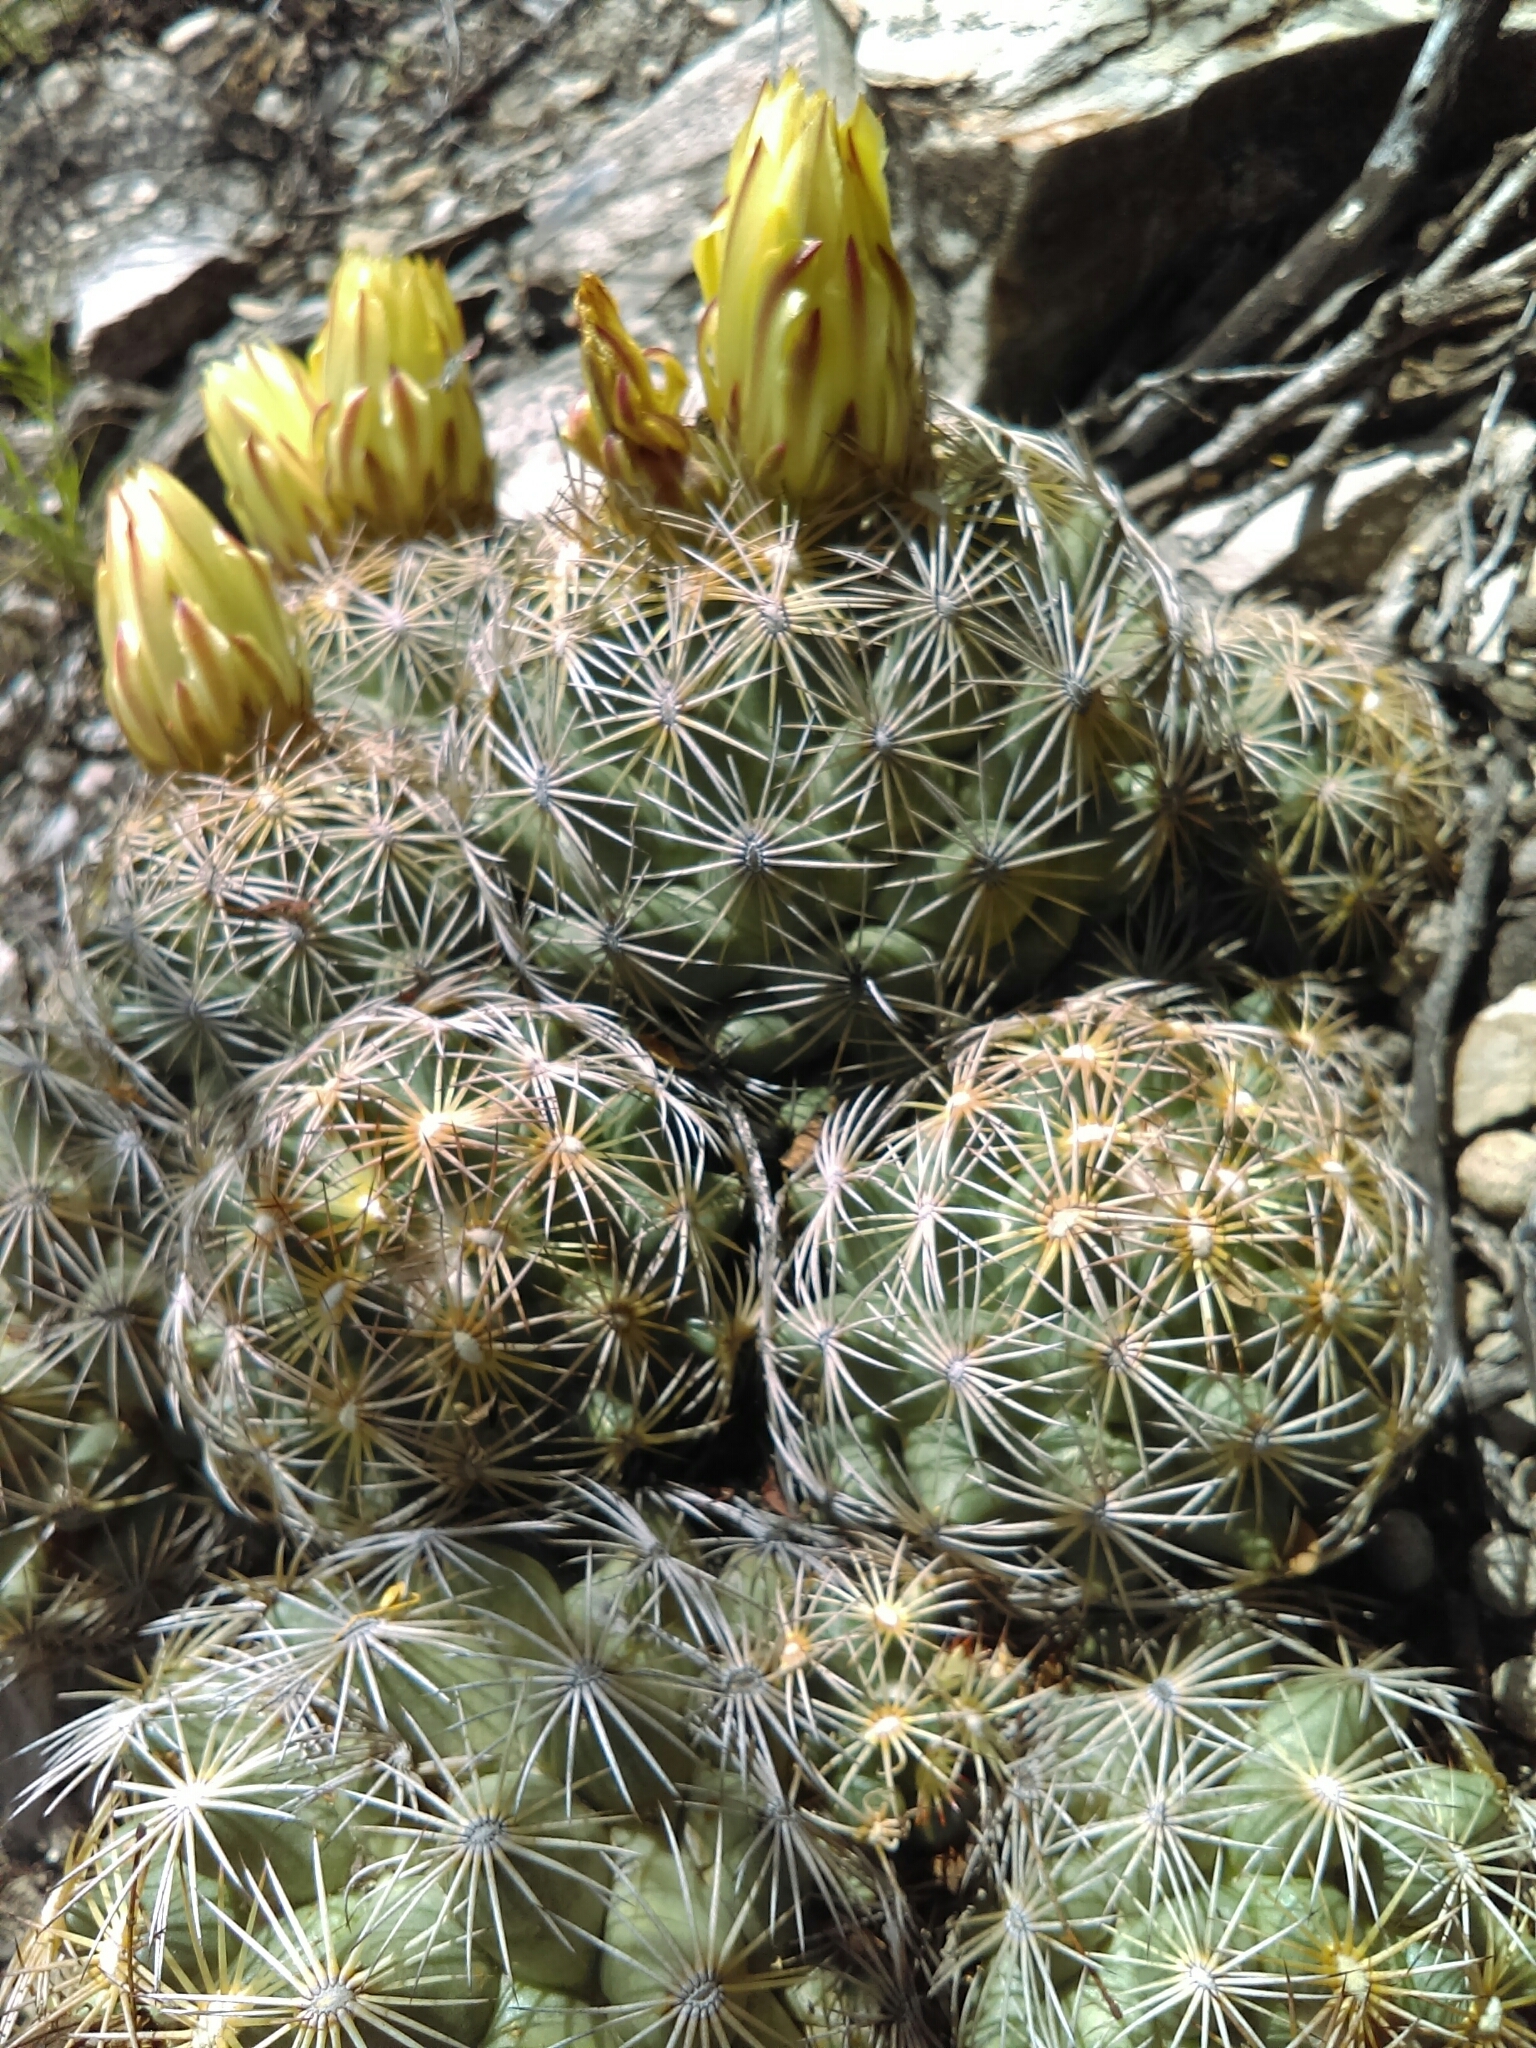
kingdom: Plantae
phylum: Tracheophyta
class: Magnoliopsida
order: Caryophyllales
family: Cactaceae
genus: Coryphantha
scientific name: Coryphantha cornifera
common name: Rhinoceros cactus
